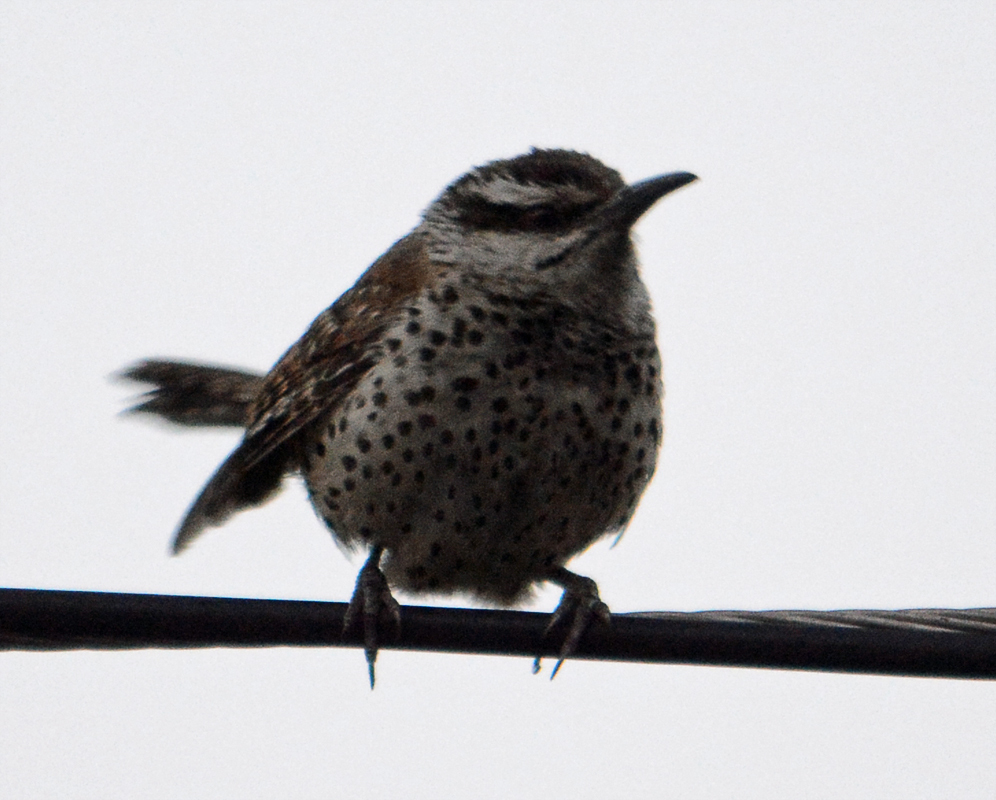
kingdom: Animalia
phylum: Chordata
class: Aves
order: Passeriformes
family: Troglodytidae
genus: Campylorhynchus
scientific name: Campylorhynchus jocosus
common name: Boucard's wren
